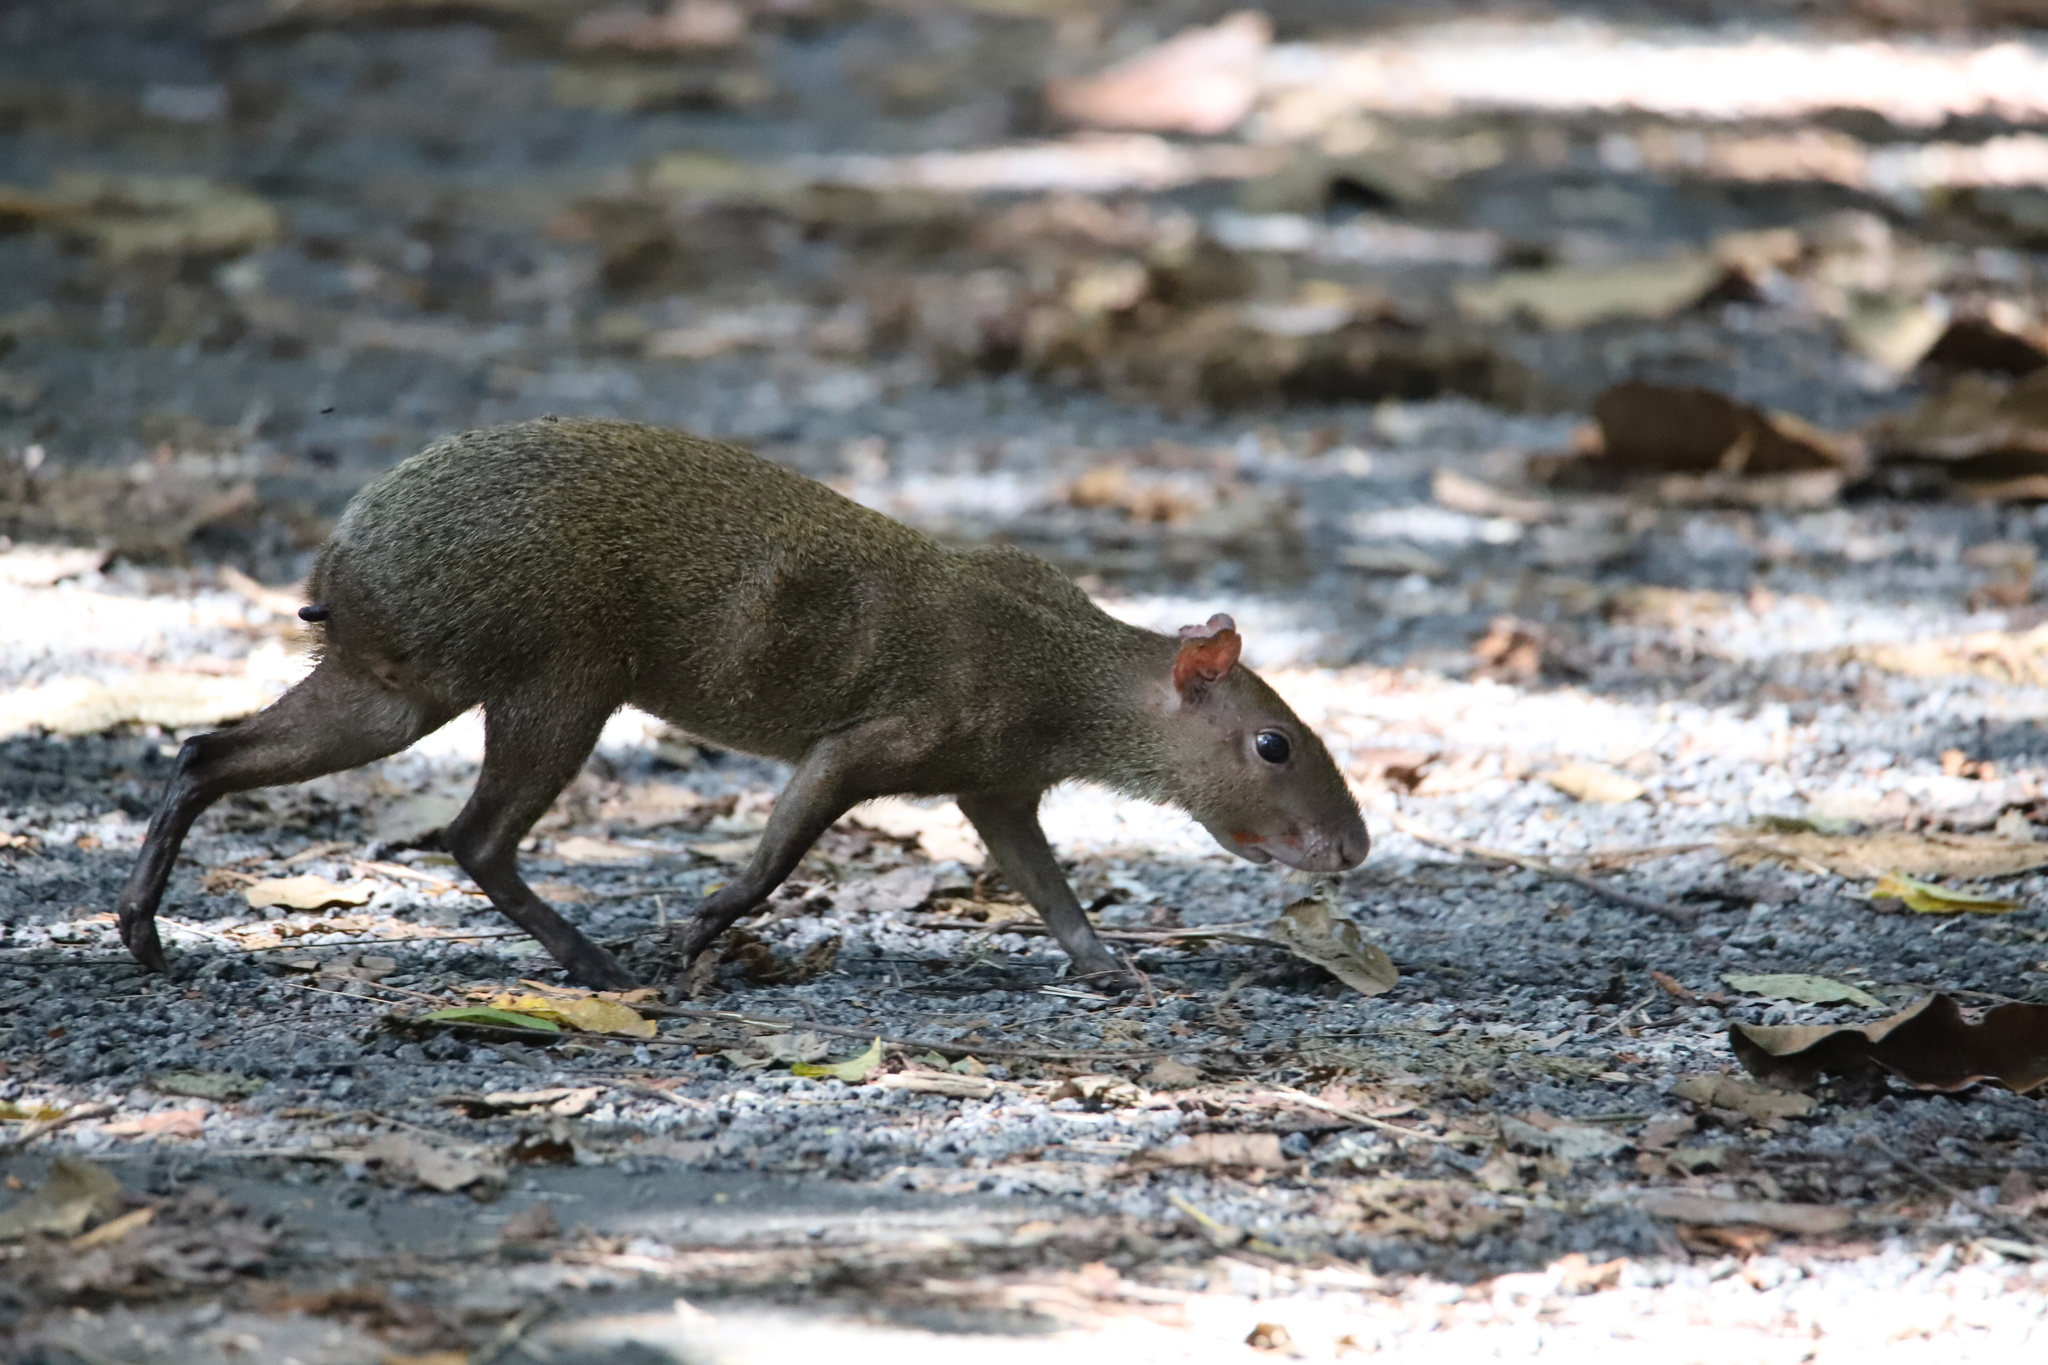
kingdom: Animalia
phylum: Chordata
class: Mammalia
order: Rodentia
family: Dasyproctidae
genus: Dasyprocta
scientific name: Dasyprocta punctata
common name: Central american agouti
